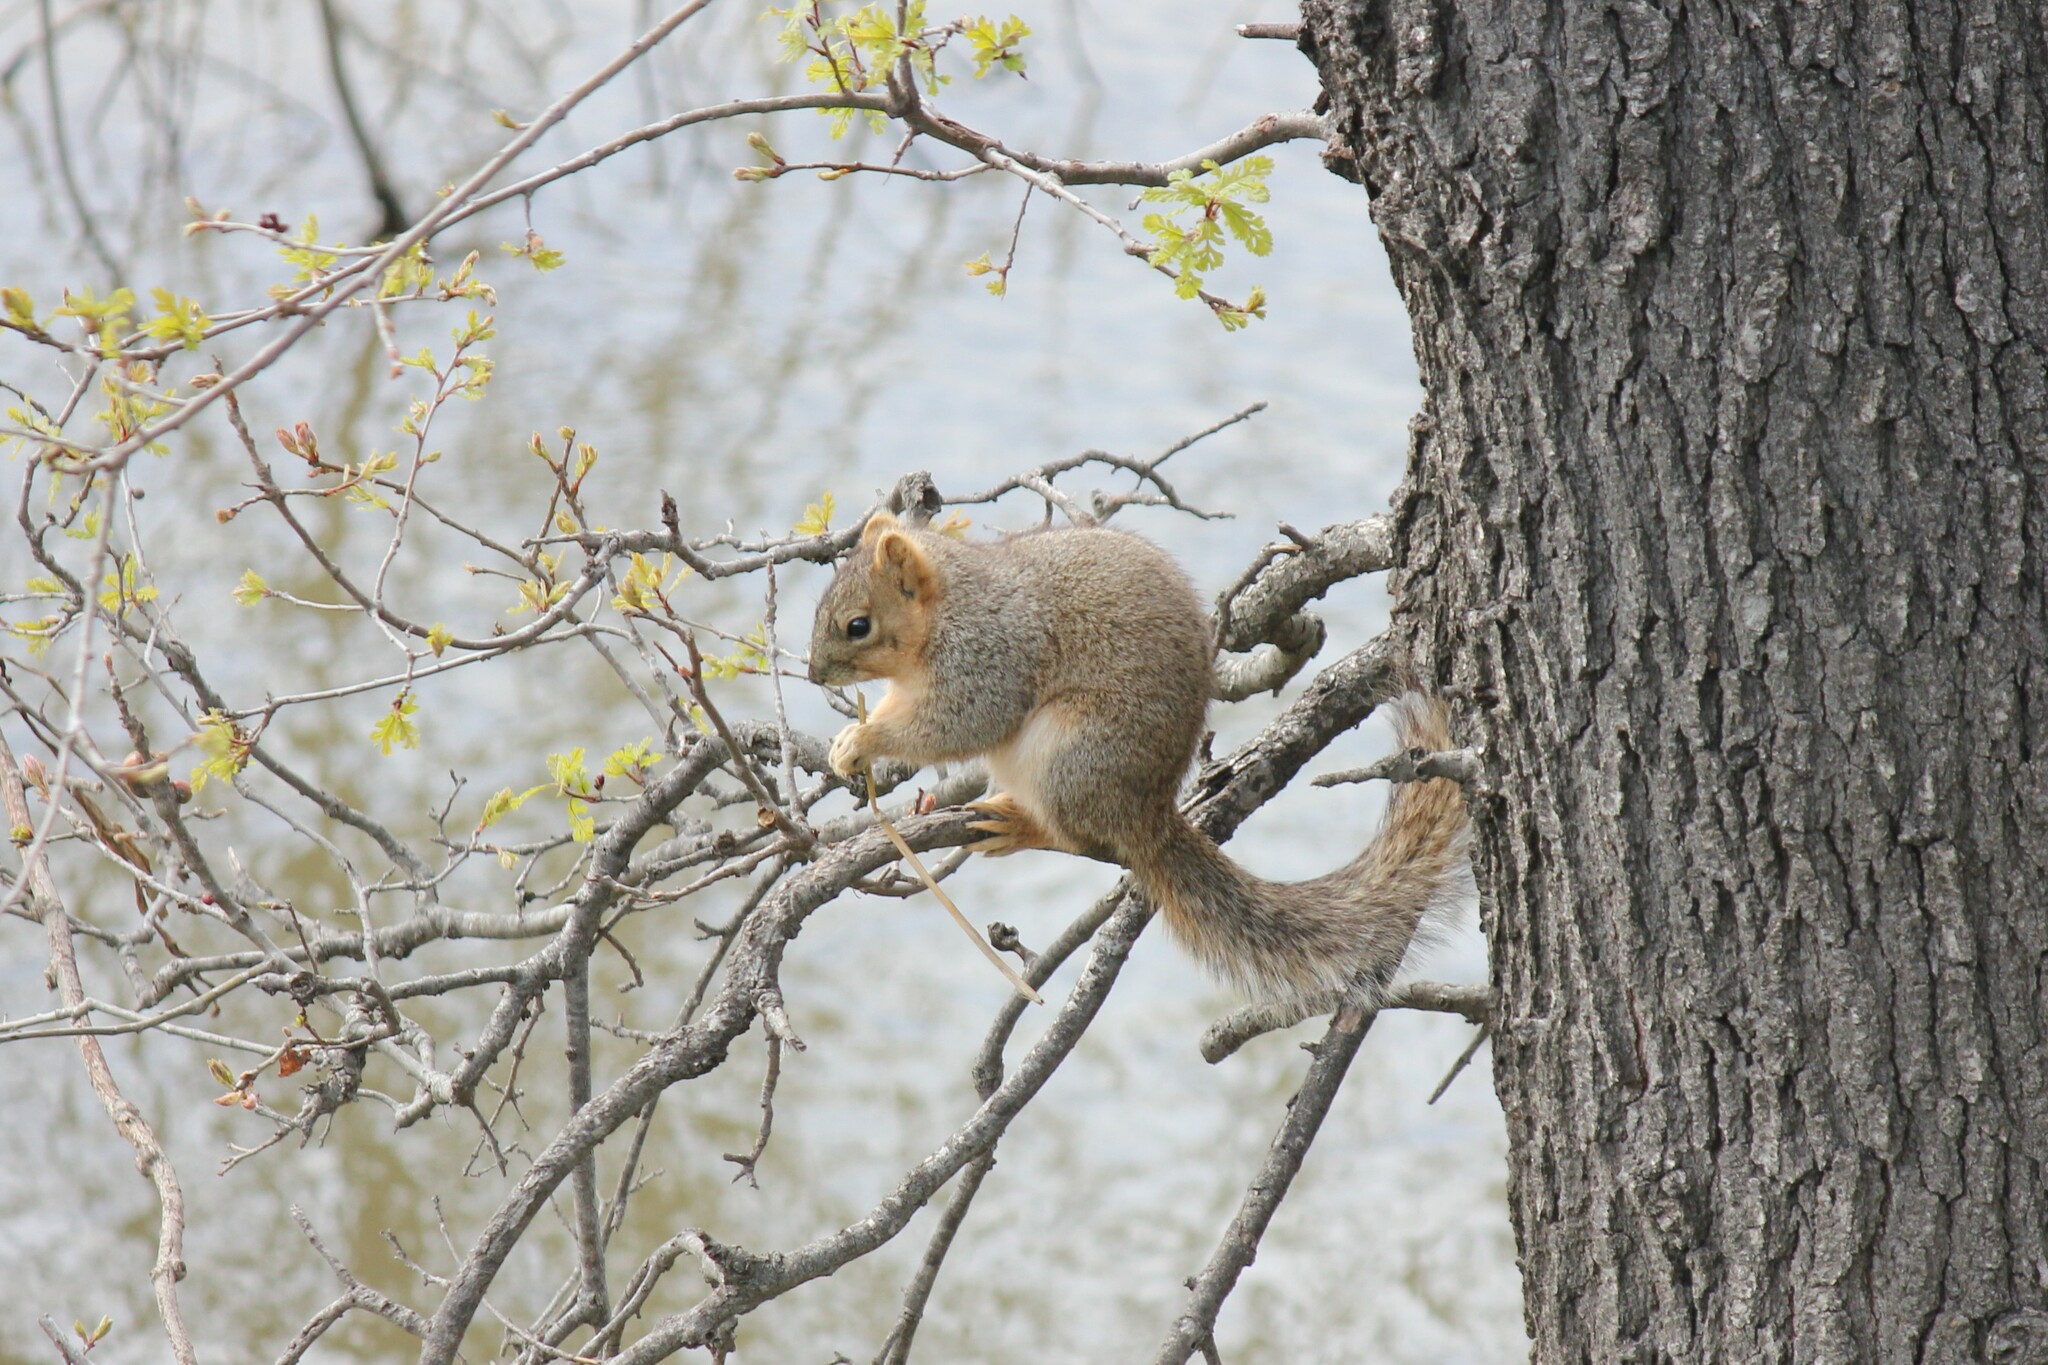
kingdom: Animalia
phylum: Chordata
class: Mammalia
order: Rodentia
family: Sciuridae
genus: Sciurus
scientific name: Sciurus niger
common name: Fox squirrel
